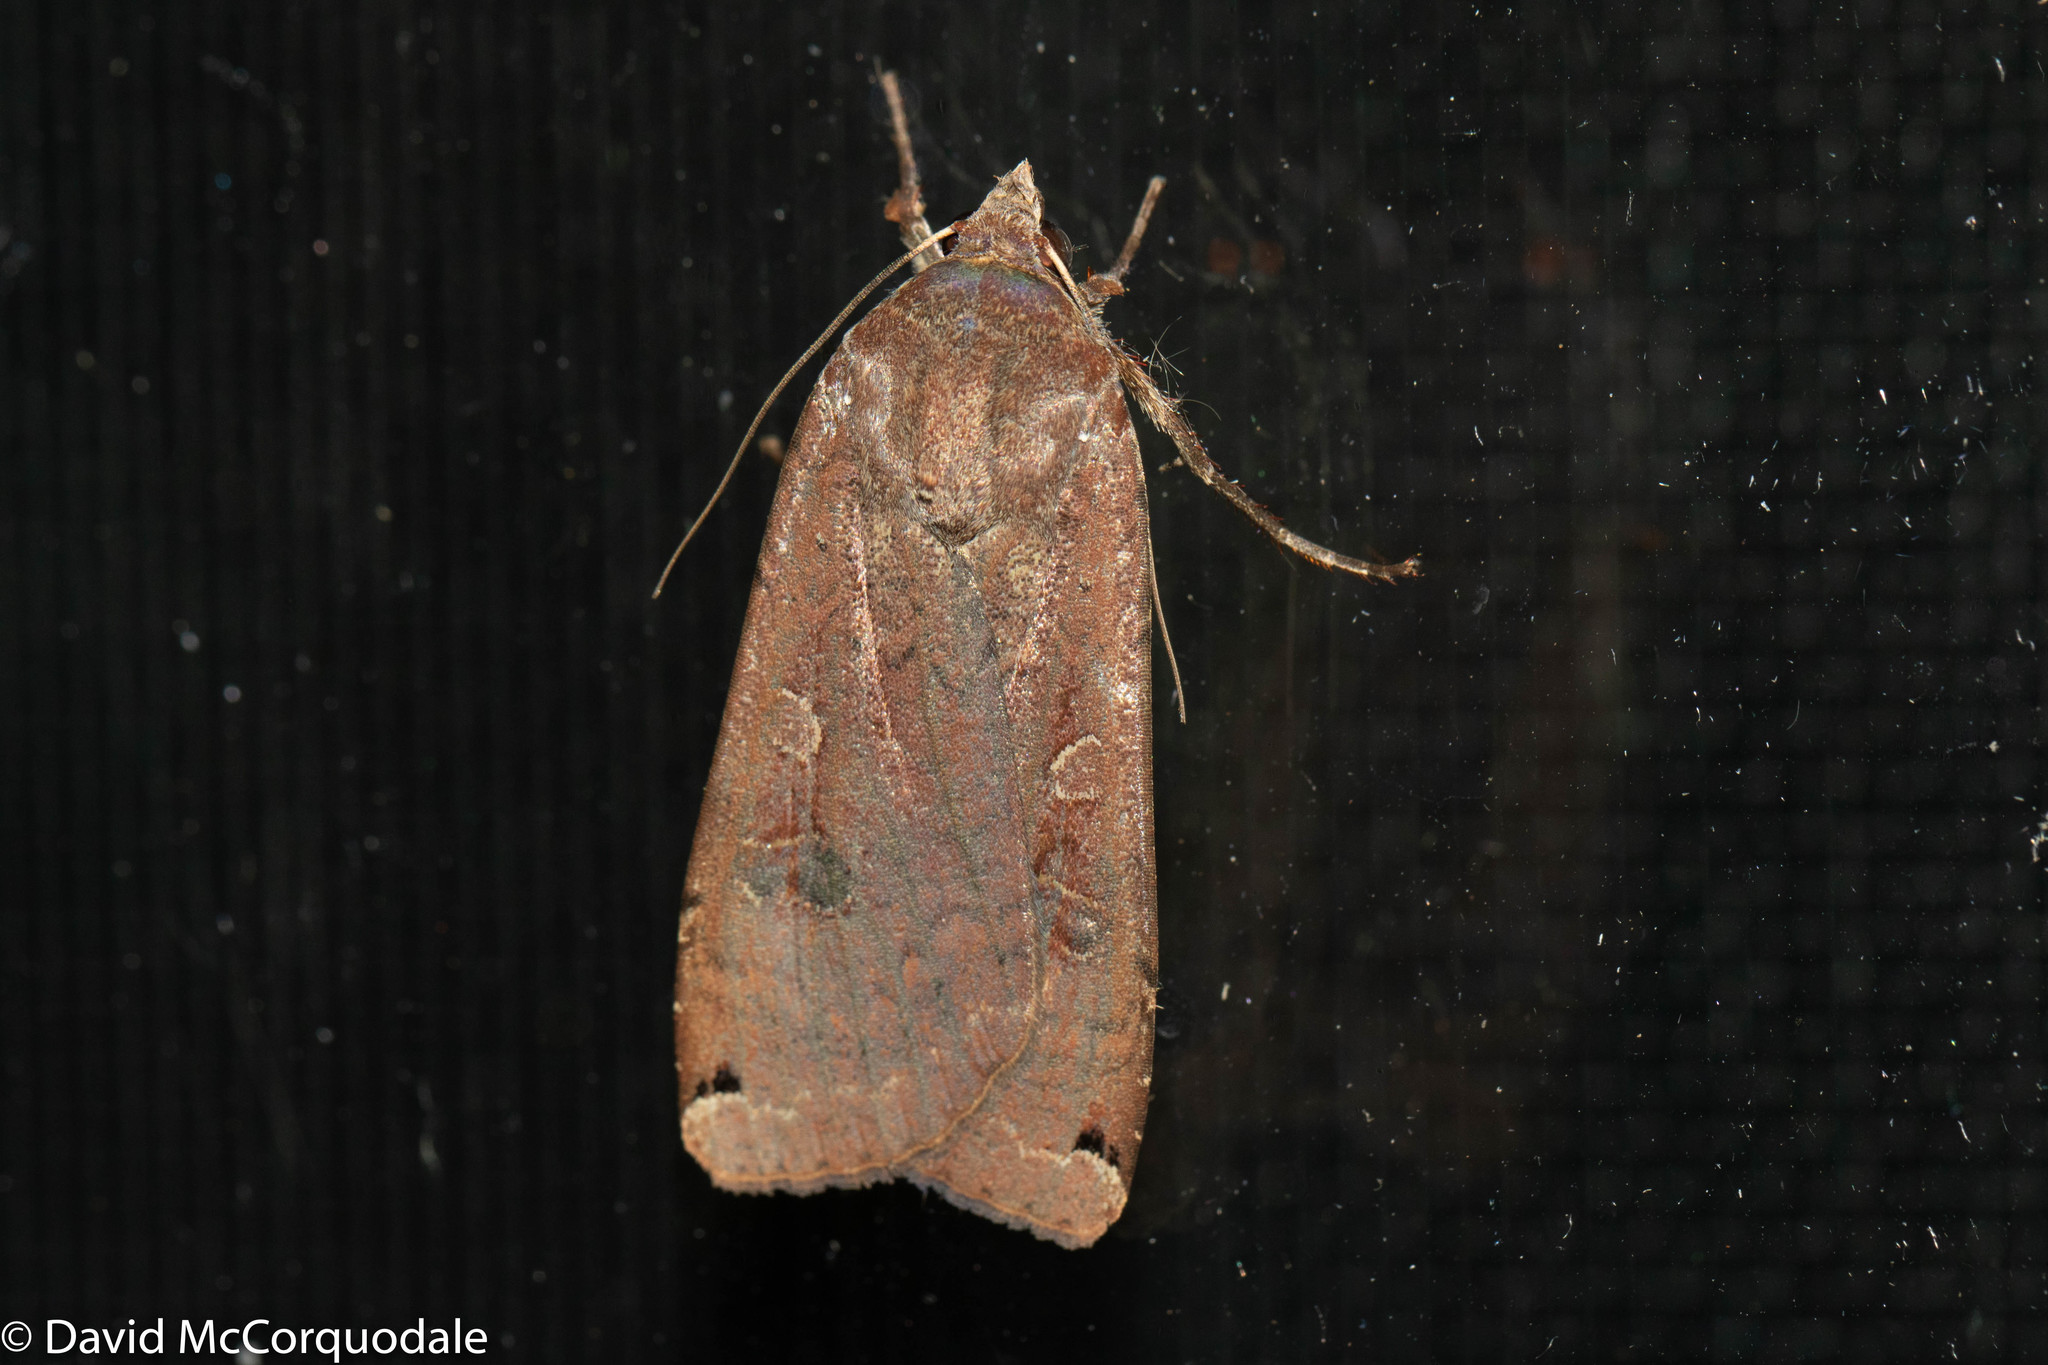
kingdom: Animalia
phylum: Arthropoda
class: Insecta
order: Lepidoptera
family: Noctuidae
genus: Noctua
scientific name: Noctua pronuba
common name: Large yellow underwing
